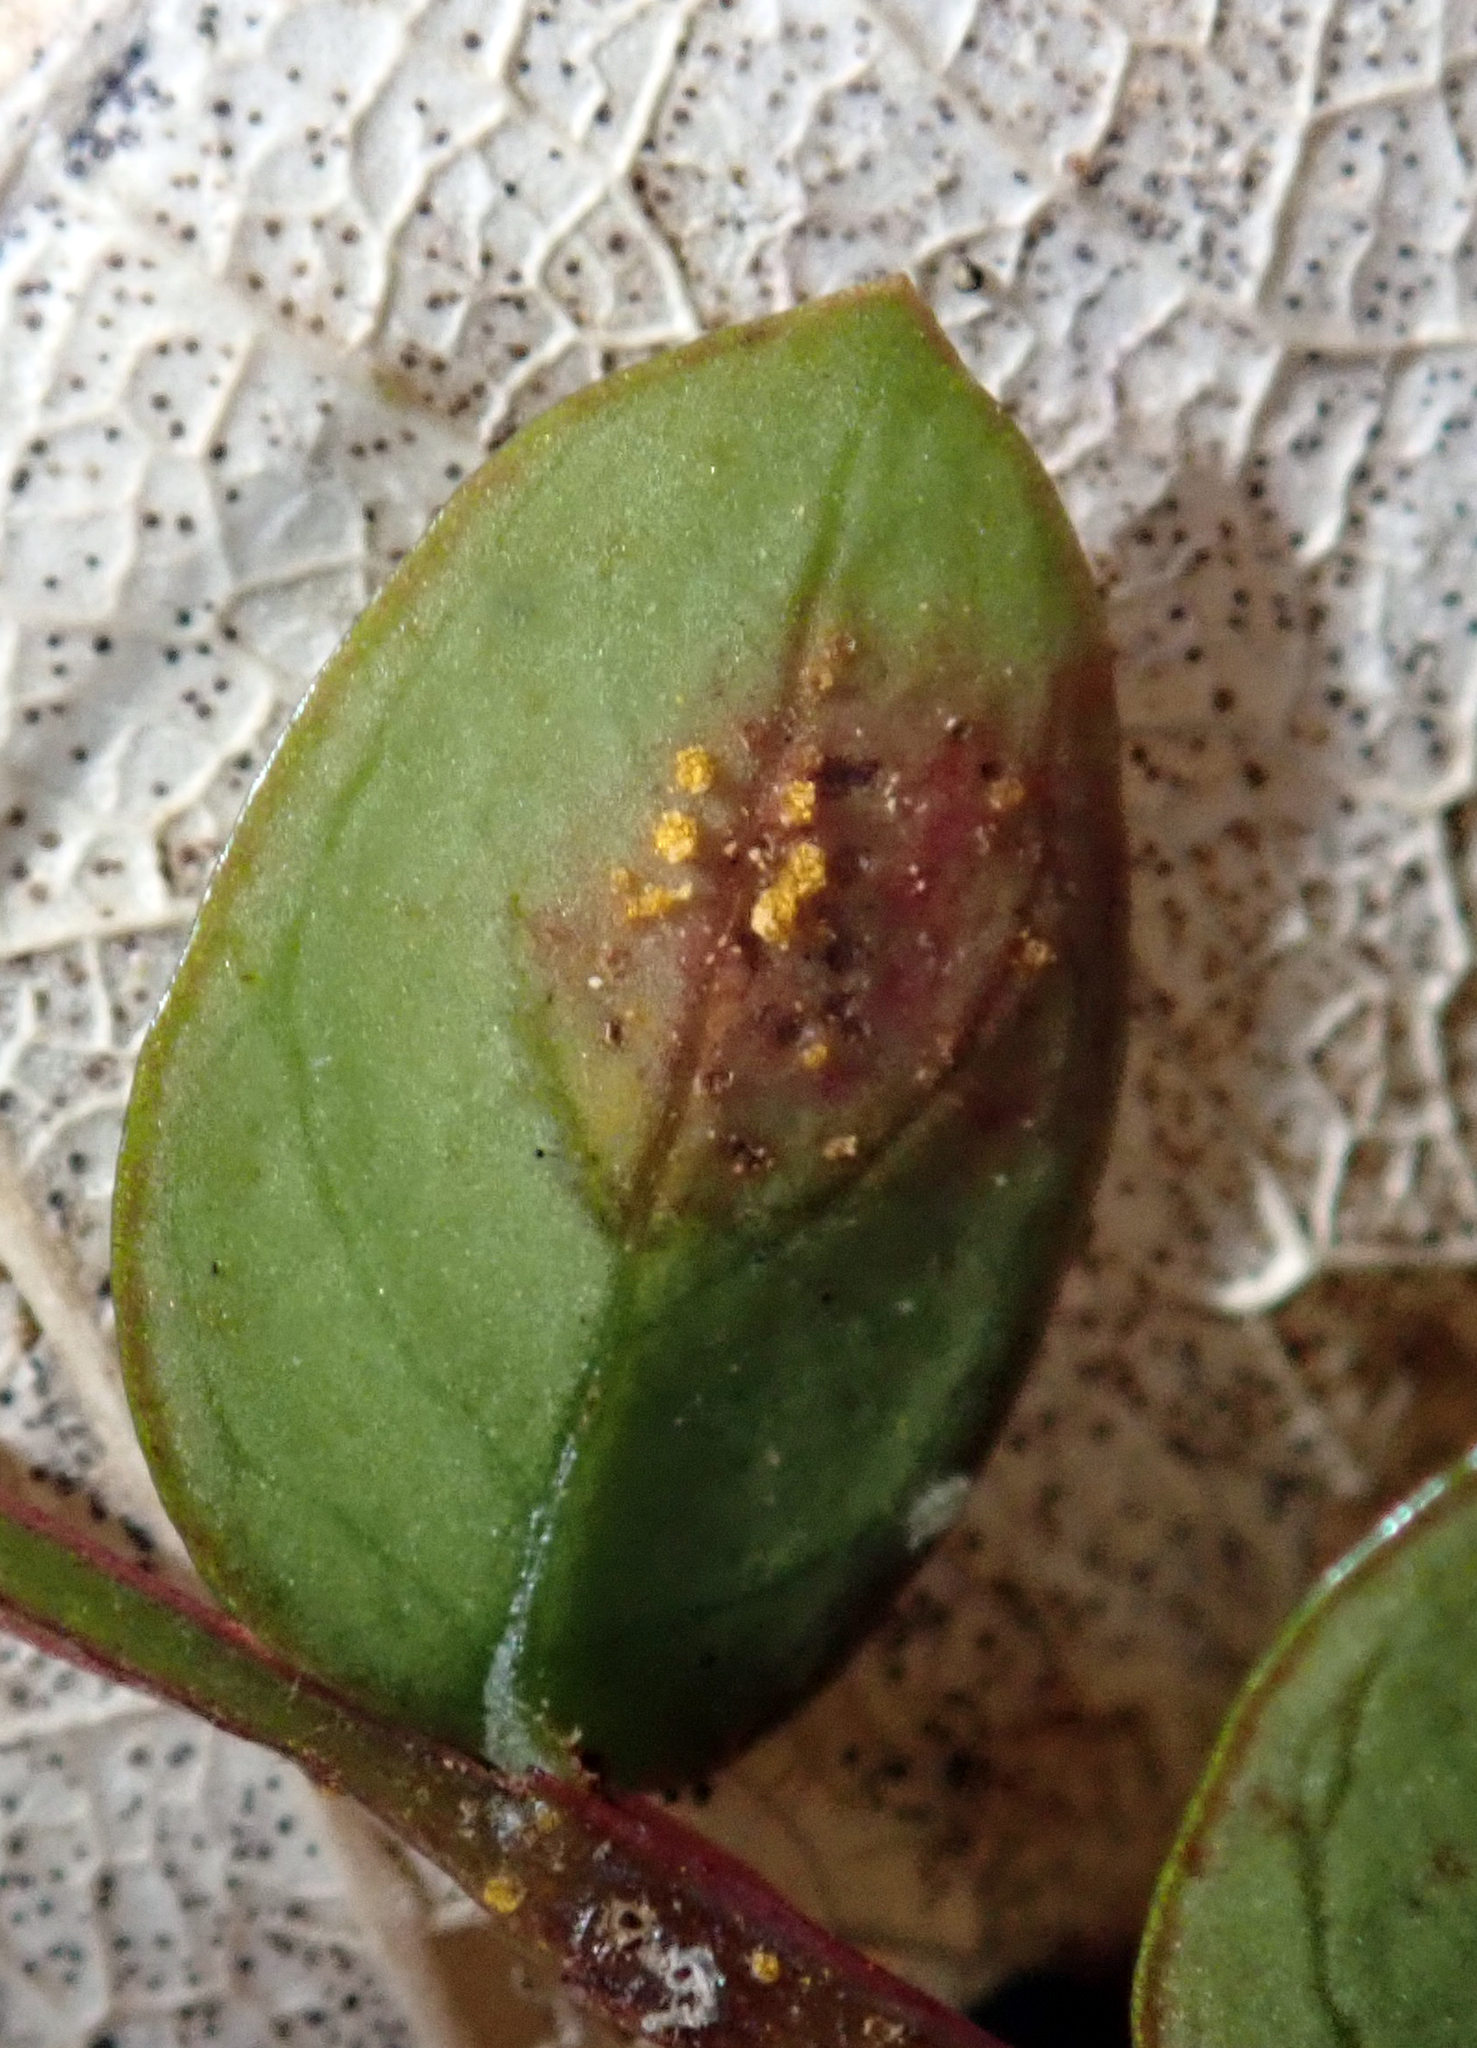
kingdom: Fungi
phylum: Basidiomycota
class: Pucciniomycetes
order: Pucciniales
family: Sphaerophragmiaceae
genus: Austropuccinia
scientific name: Austropuccinia psidii
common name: Myrtle rust
